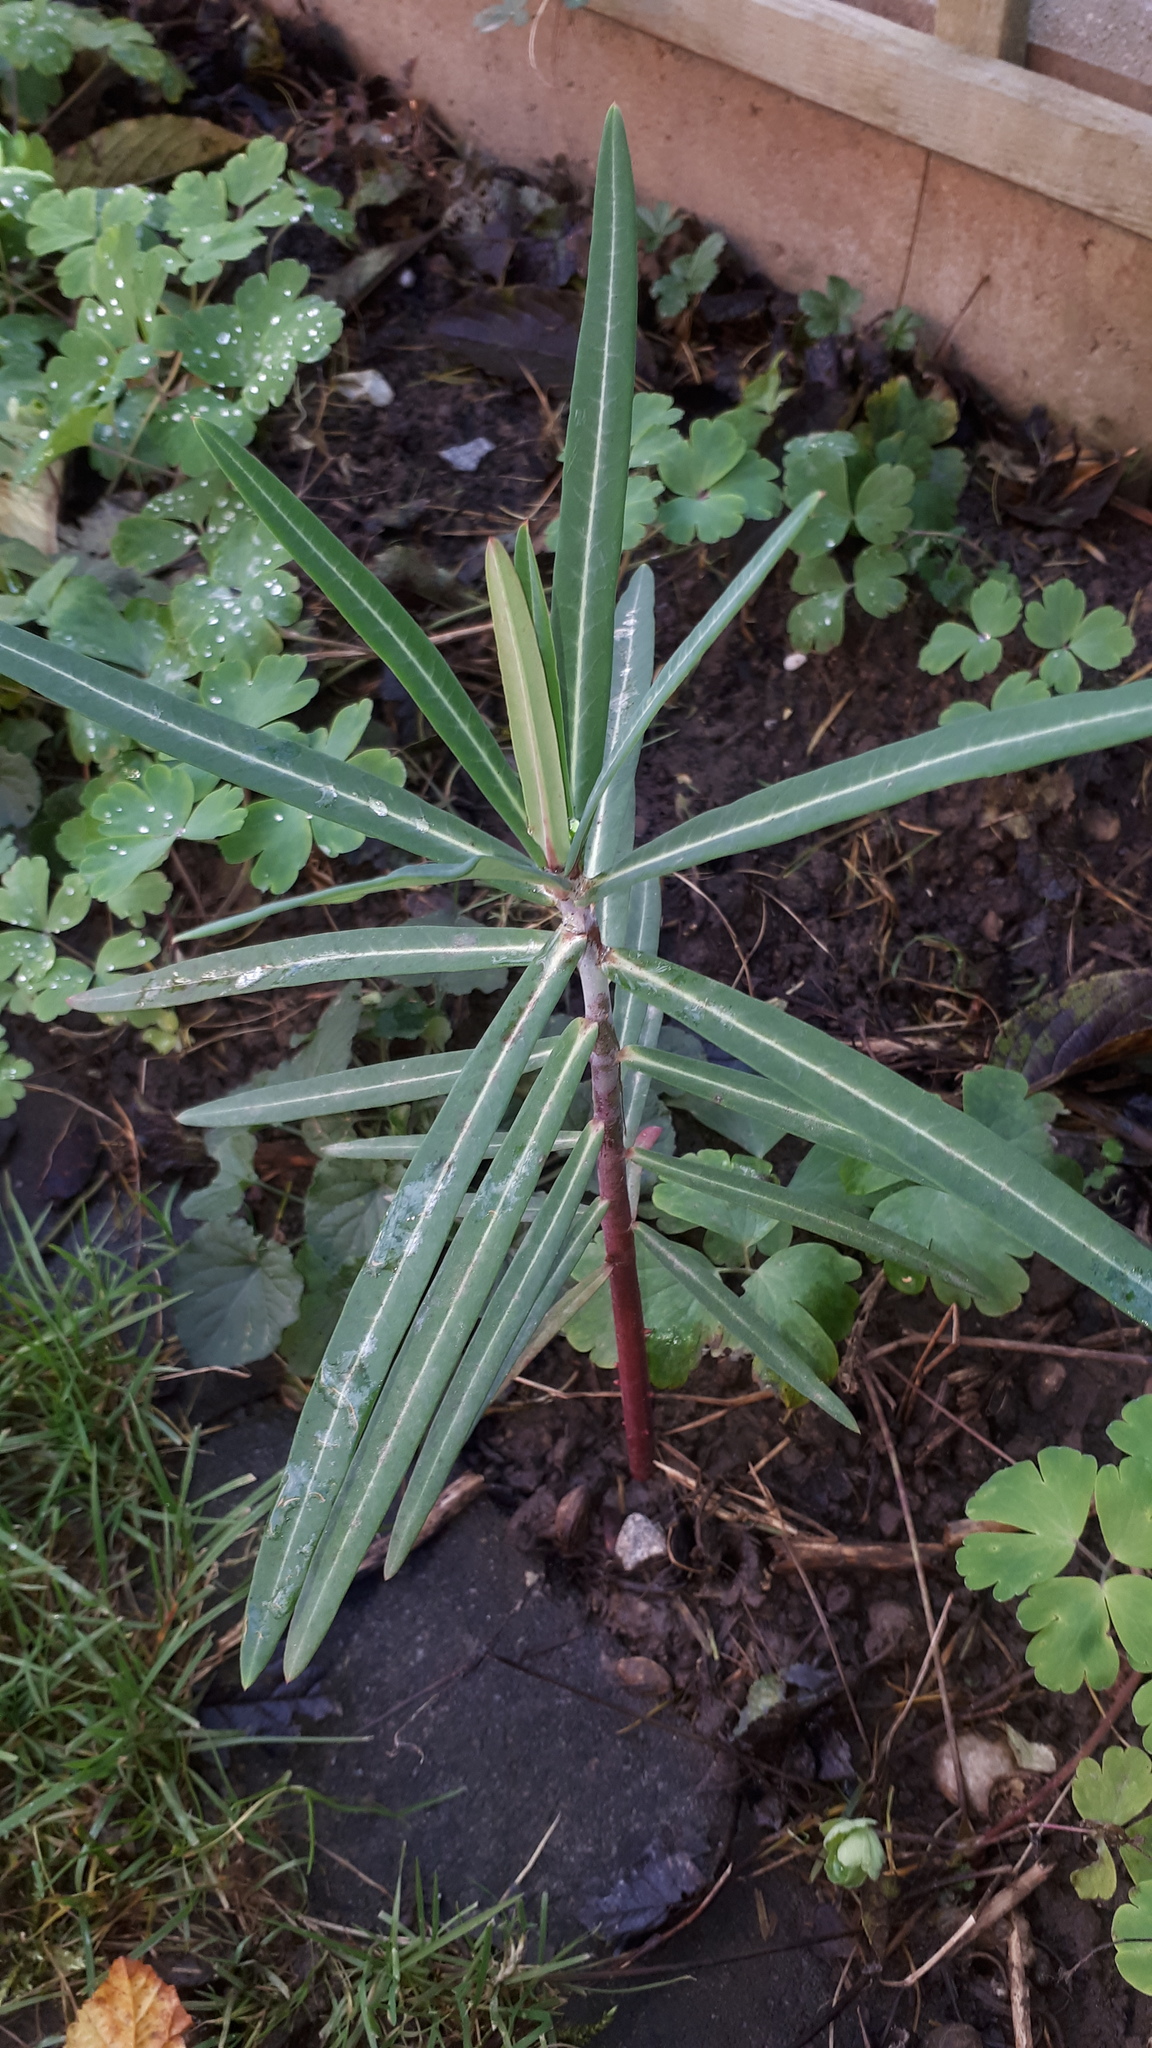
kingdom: Plantae
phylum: Tracheophyta
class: Magnoliopsida
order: Malpighiales
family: Euphorbiaceae
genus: Euphorbia
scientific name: Euphorbia lathyris
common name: Caper spurge
